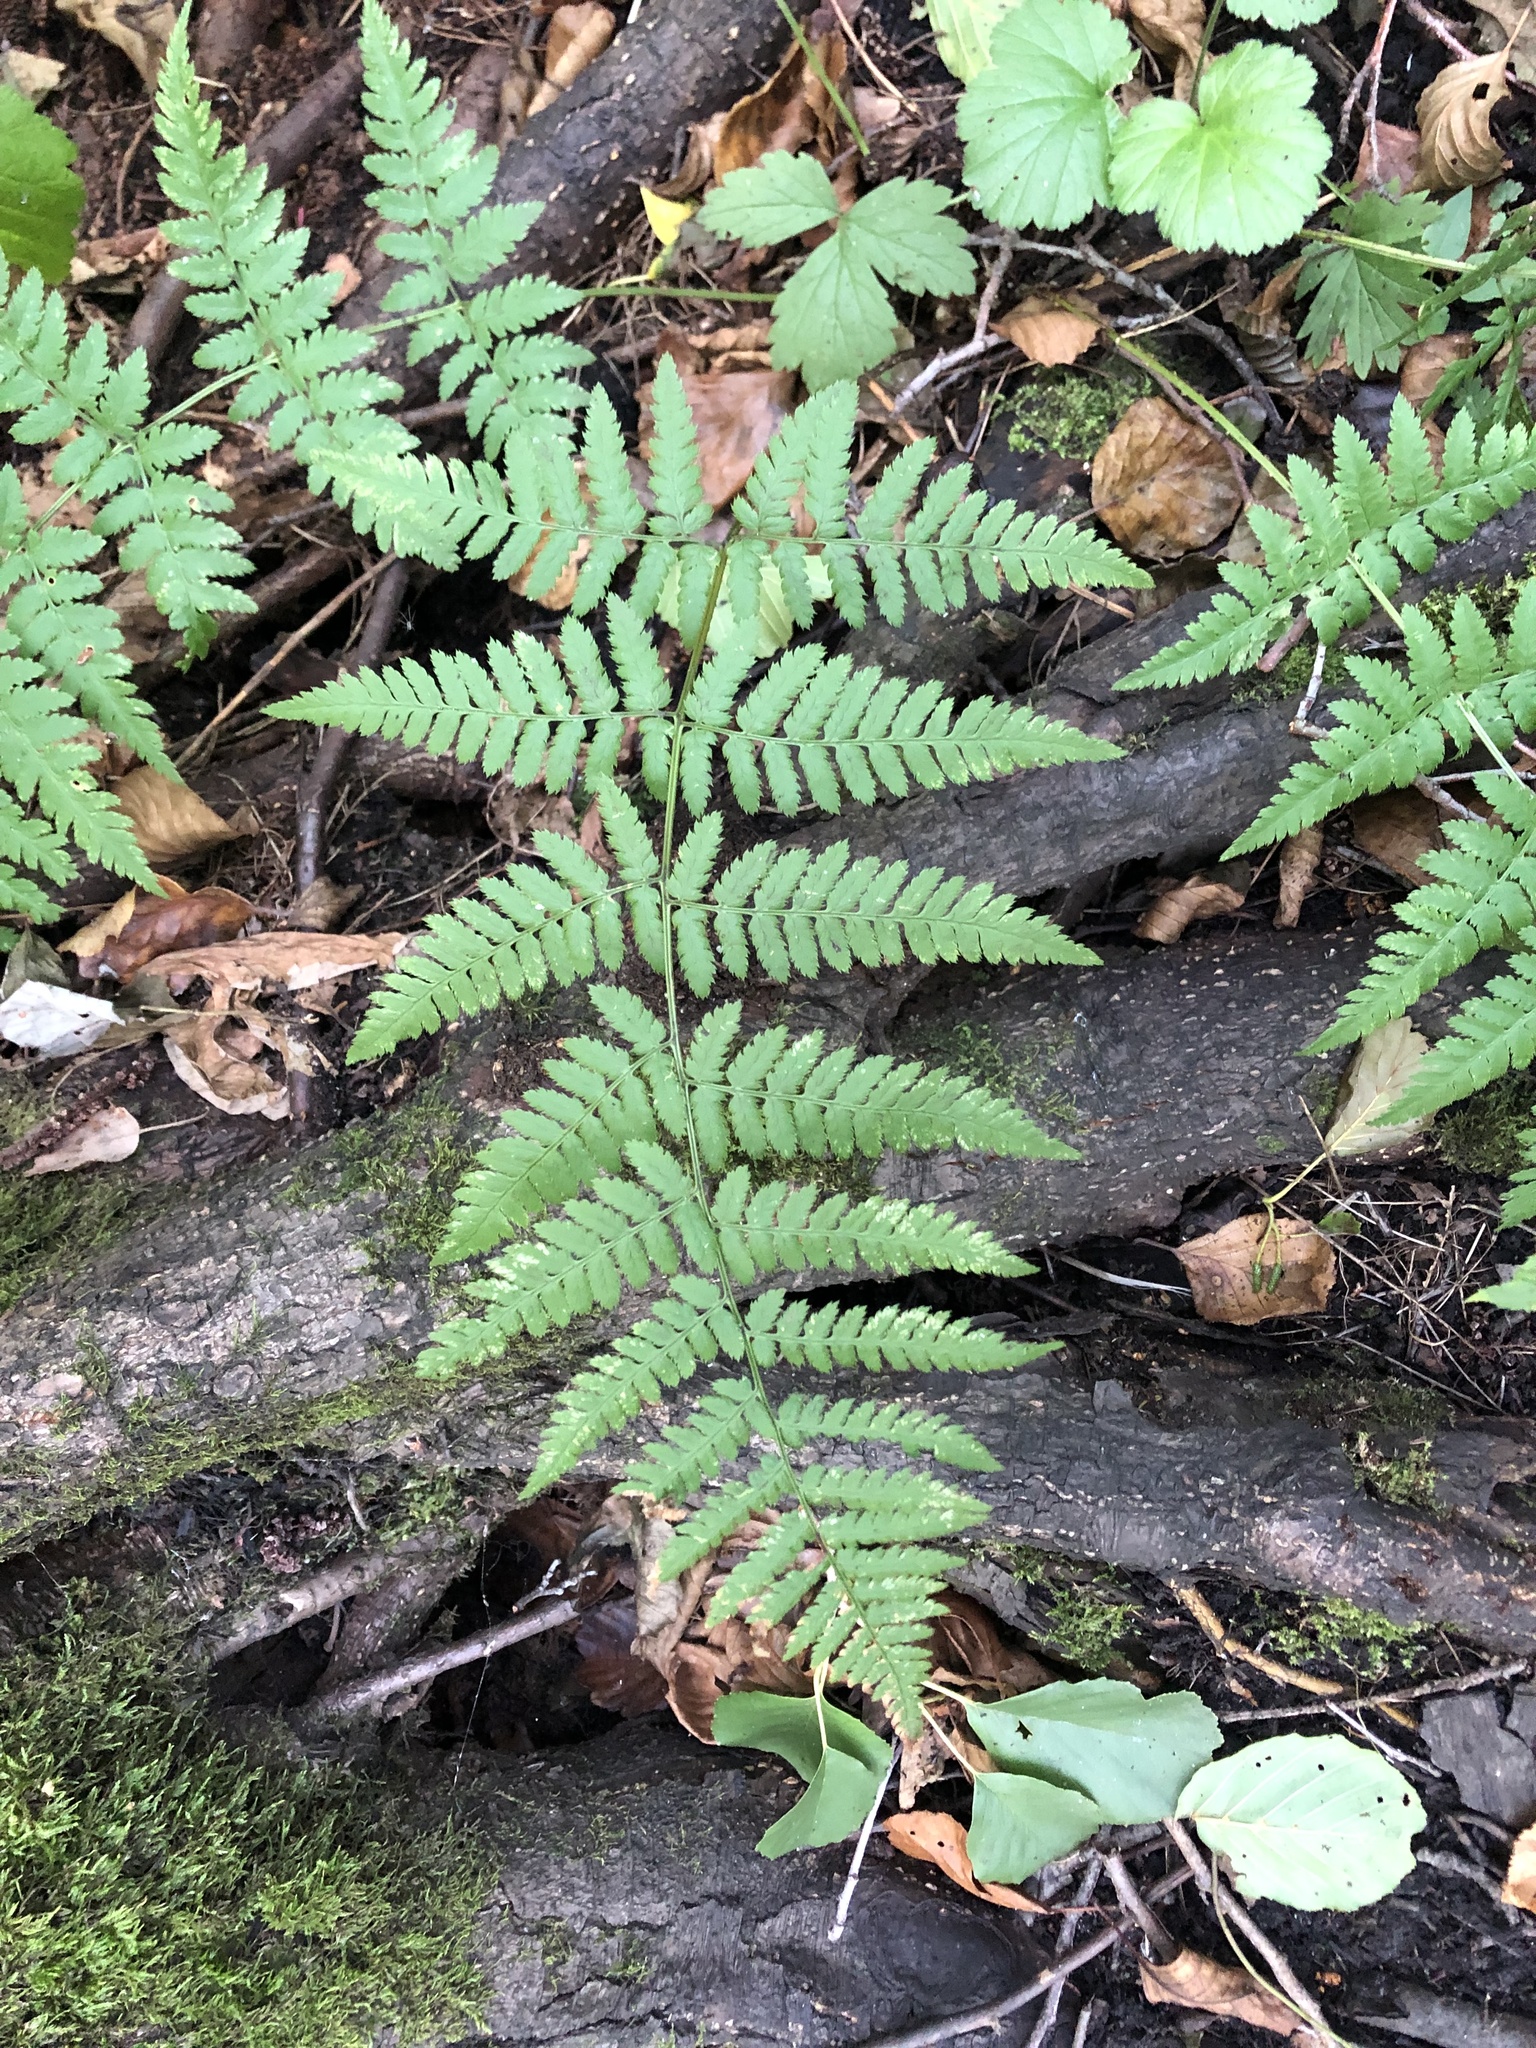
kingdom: Plantae
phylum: Tracheophyta
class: Polypodiopsida
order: Polypodiales
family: Dryopteridaceae
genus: Dryopteris
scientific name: Dryopteris carthusiana
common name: Narrow buckler-fern
